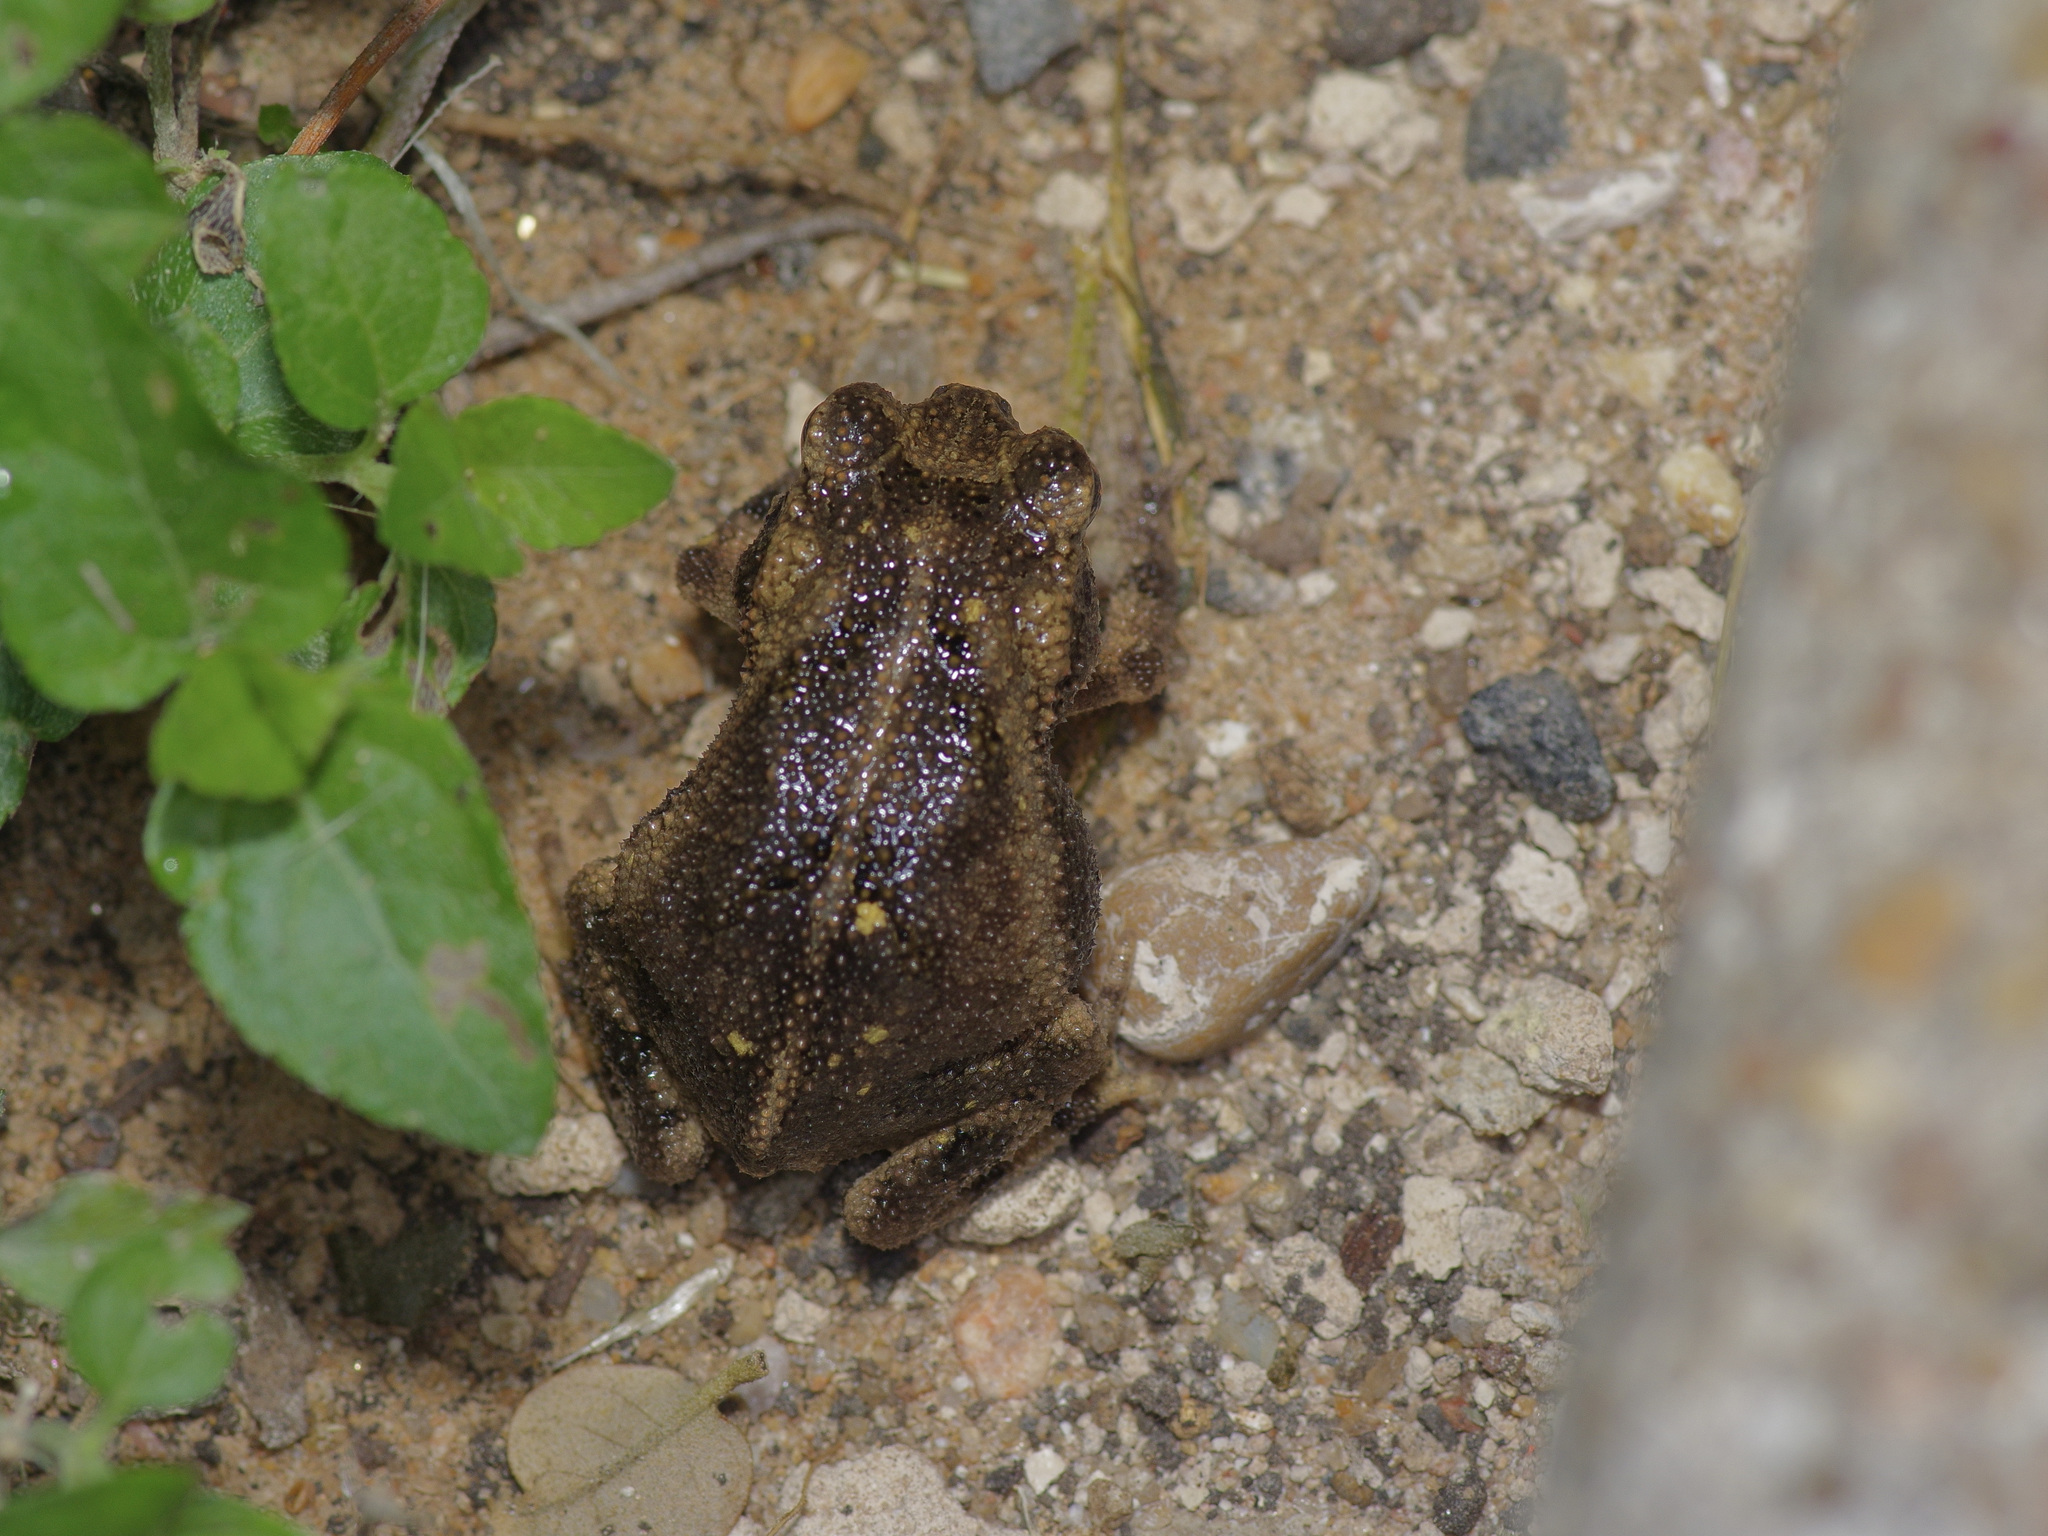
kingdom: Animalia
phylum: Chordata
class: Amphibia
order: Anura
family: Bufonidae
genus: Incilius
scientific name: Incilius nebulifer
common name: Gulf coast toad
